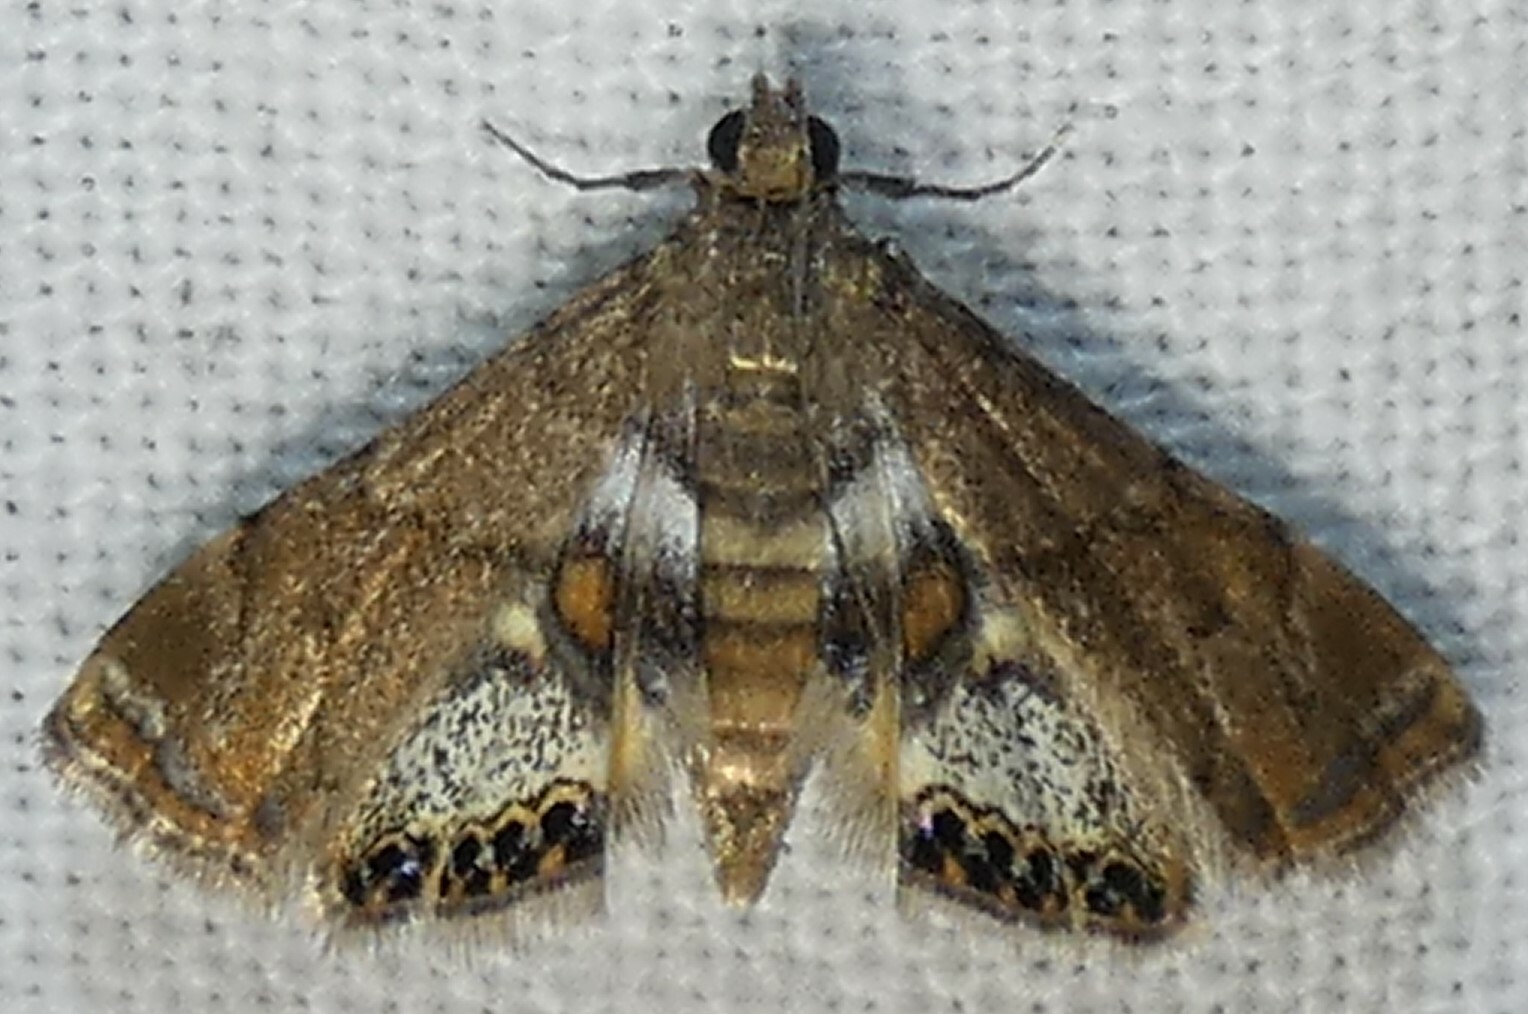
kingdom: Animalia
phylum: Arthropoda
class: Insecta
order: Lepidoptera
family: Crambidae
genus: Neargyractis
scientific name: Neargyractis slossonalis
